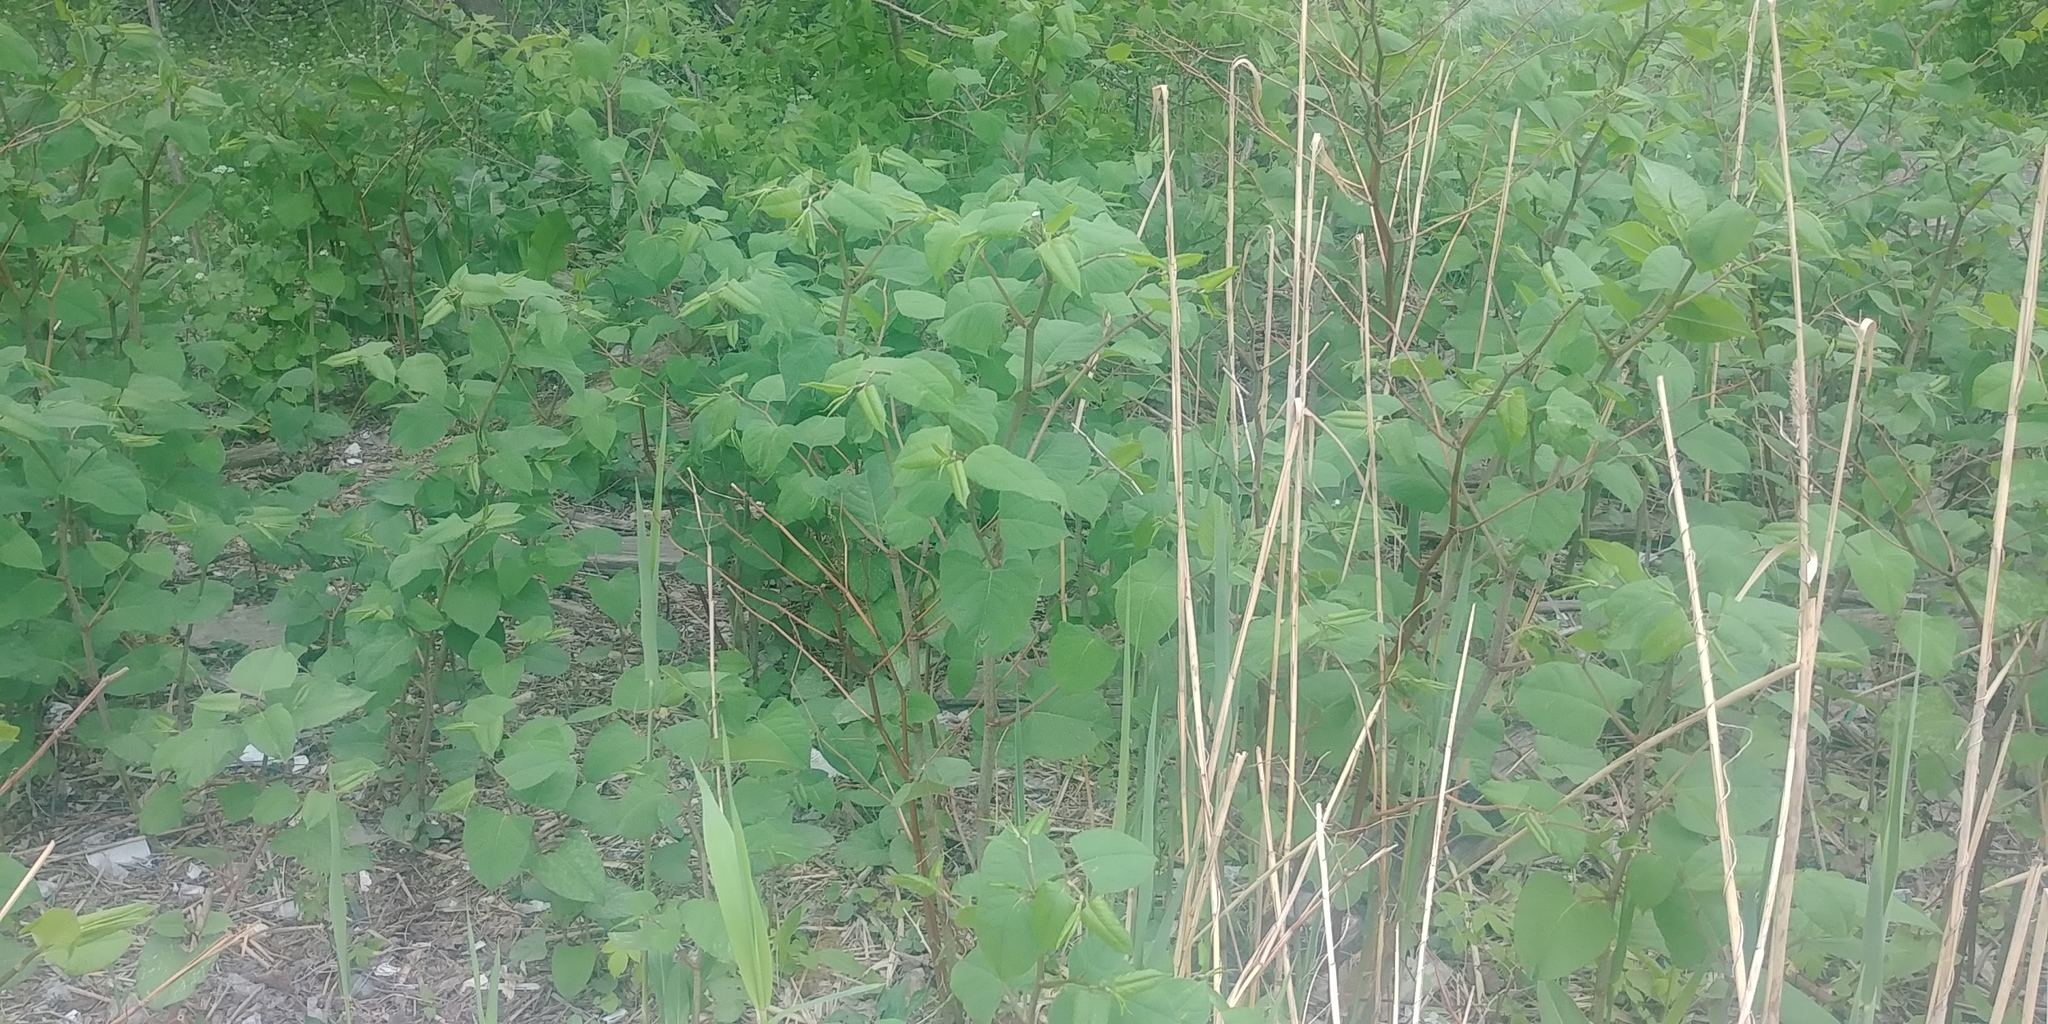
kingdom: Plantae
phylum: Tracheophyta
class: Magnoliopsida
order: Caryophyllales
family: Polygonaceae
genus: Reynoutria
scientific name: Reynoutria japonica
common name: Japanese knotweed
